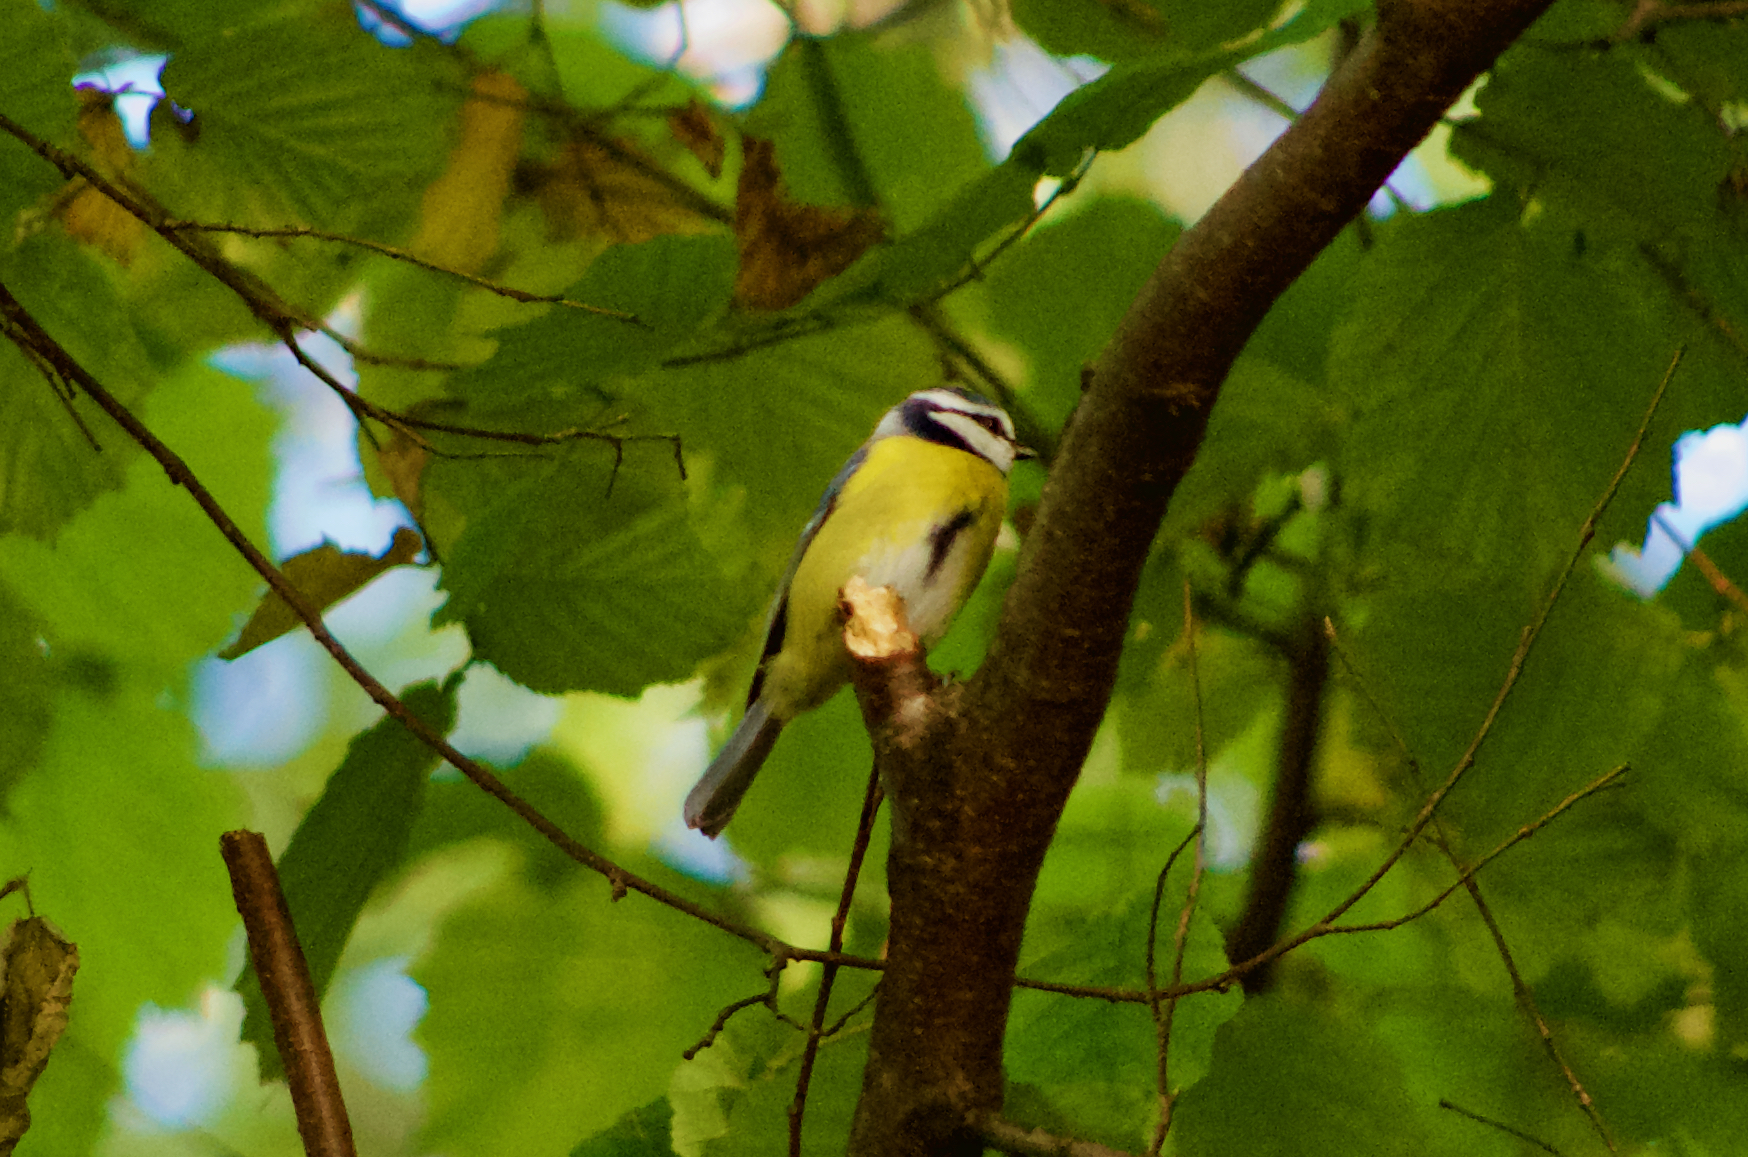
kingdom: Animalia
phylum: Chordata
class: Aves
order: Passeriformes
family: Paridae
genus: Cyanistes
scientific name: Cyanistes caeruleus
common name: Eurasian blue tit
